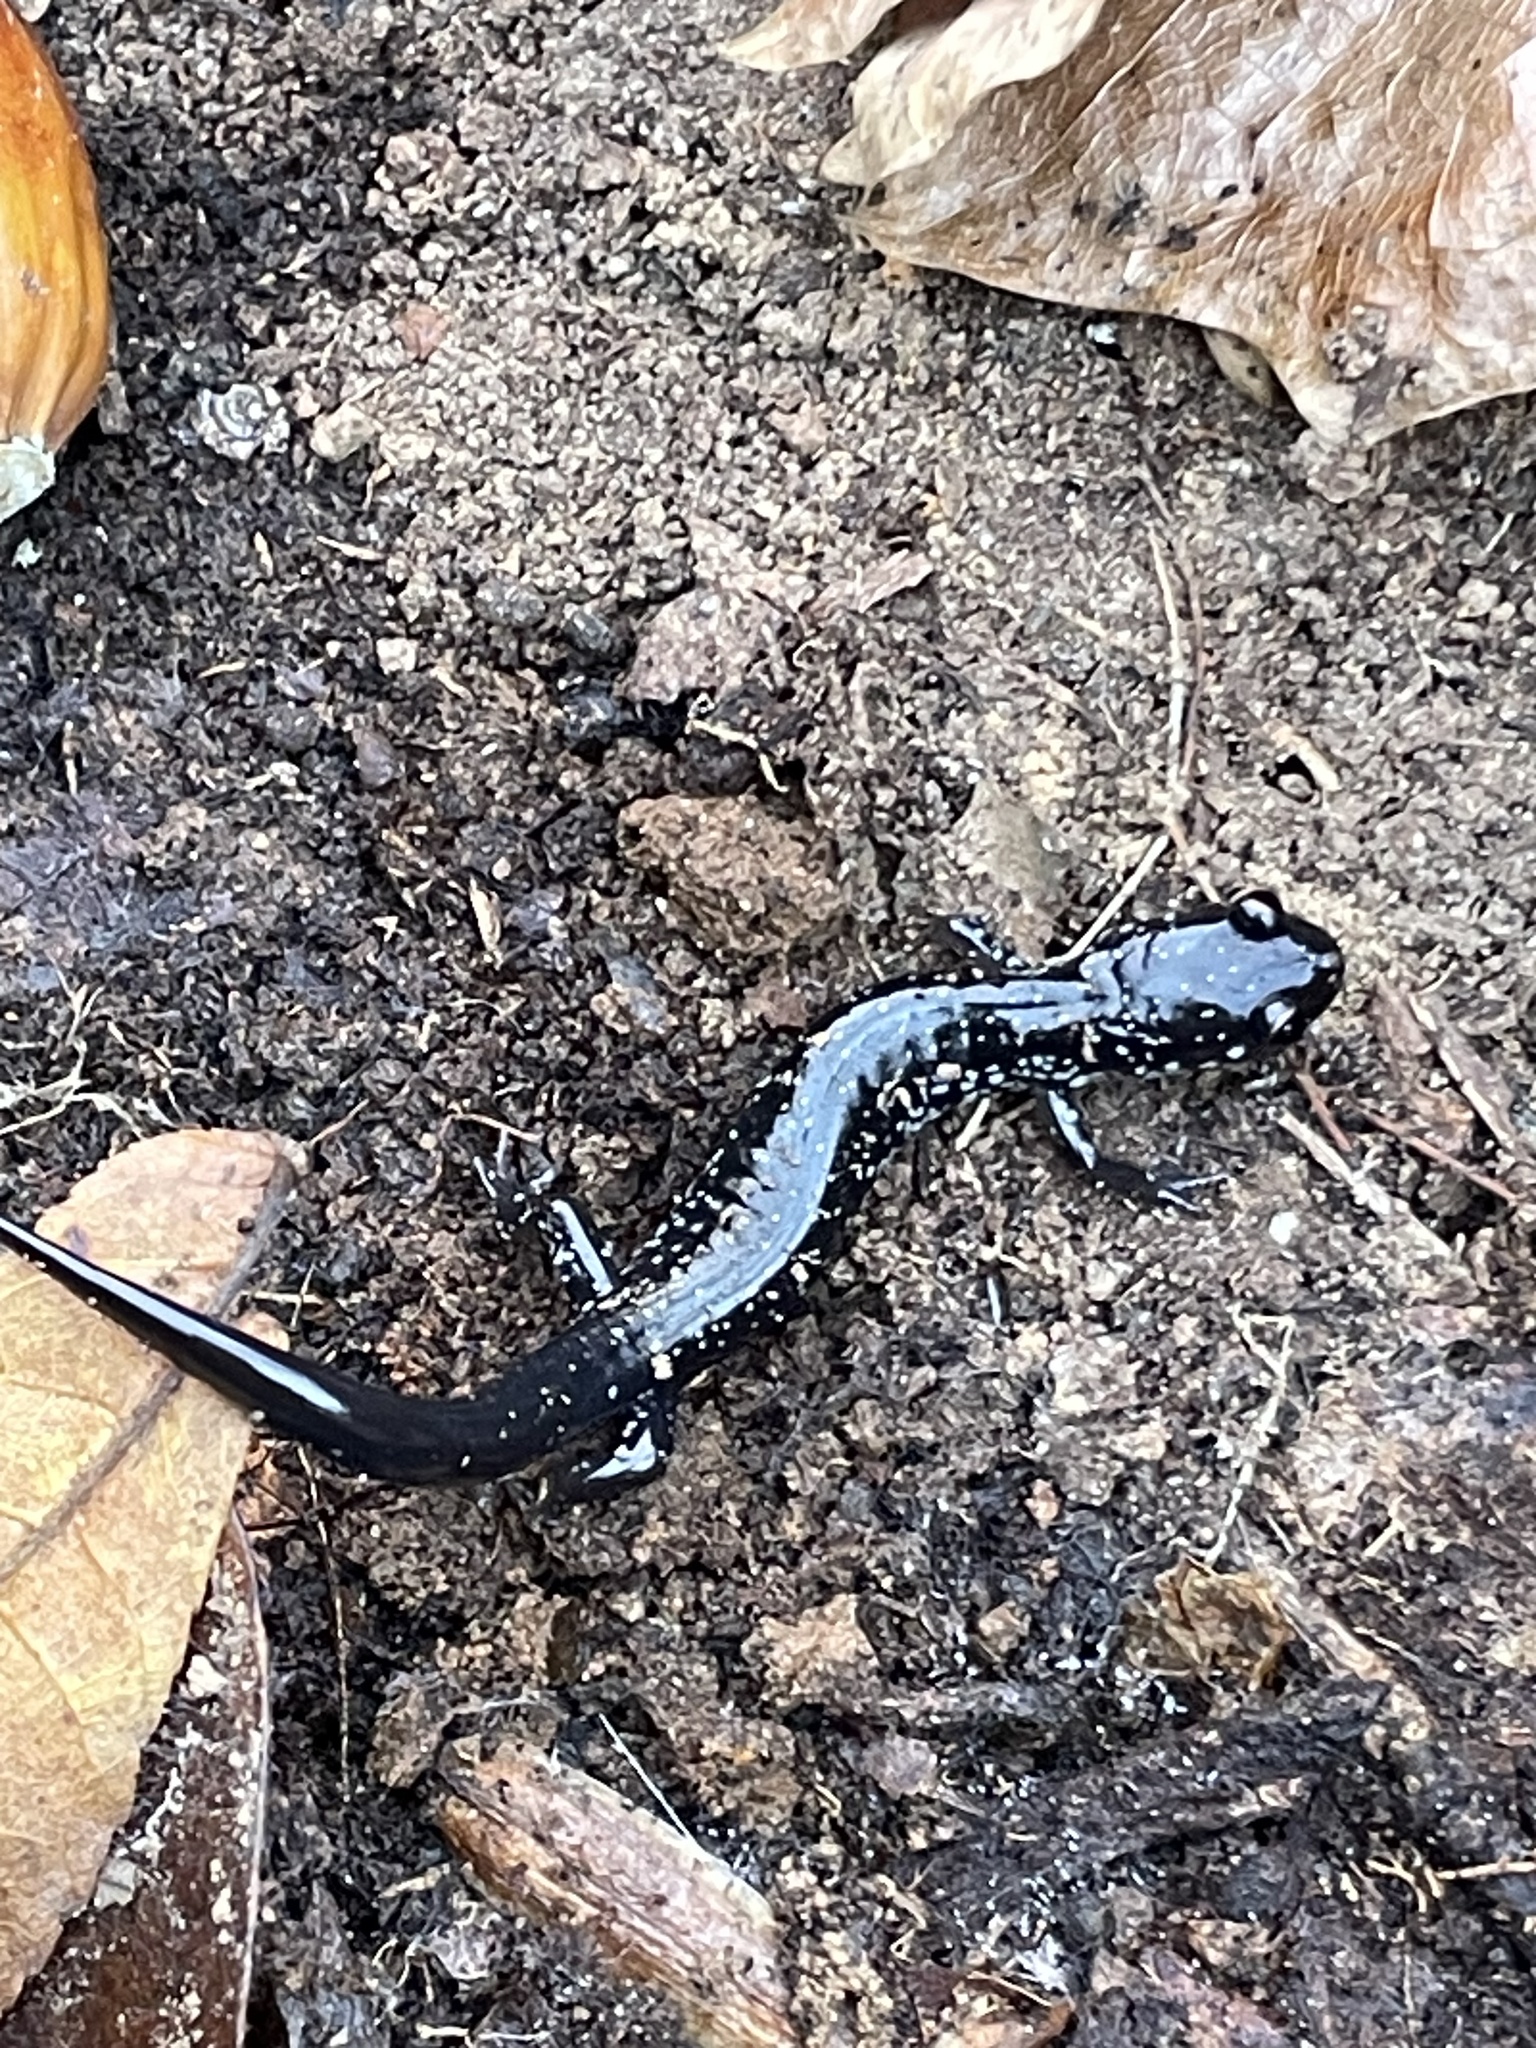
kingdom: Animalia
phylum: Chordata
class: Amphibia
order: Caudata
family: Plethodontidae
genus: Plethodon
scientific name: Plethodon
